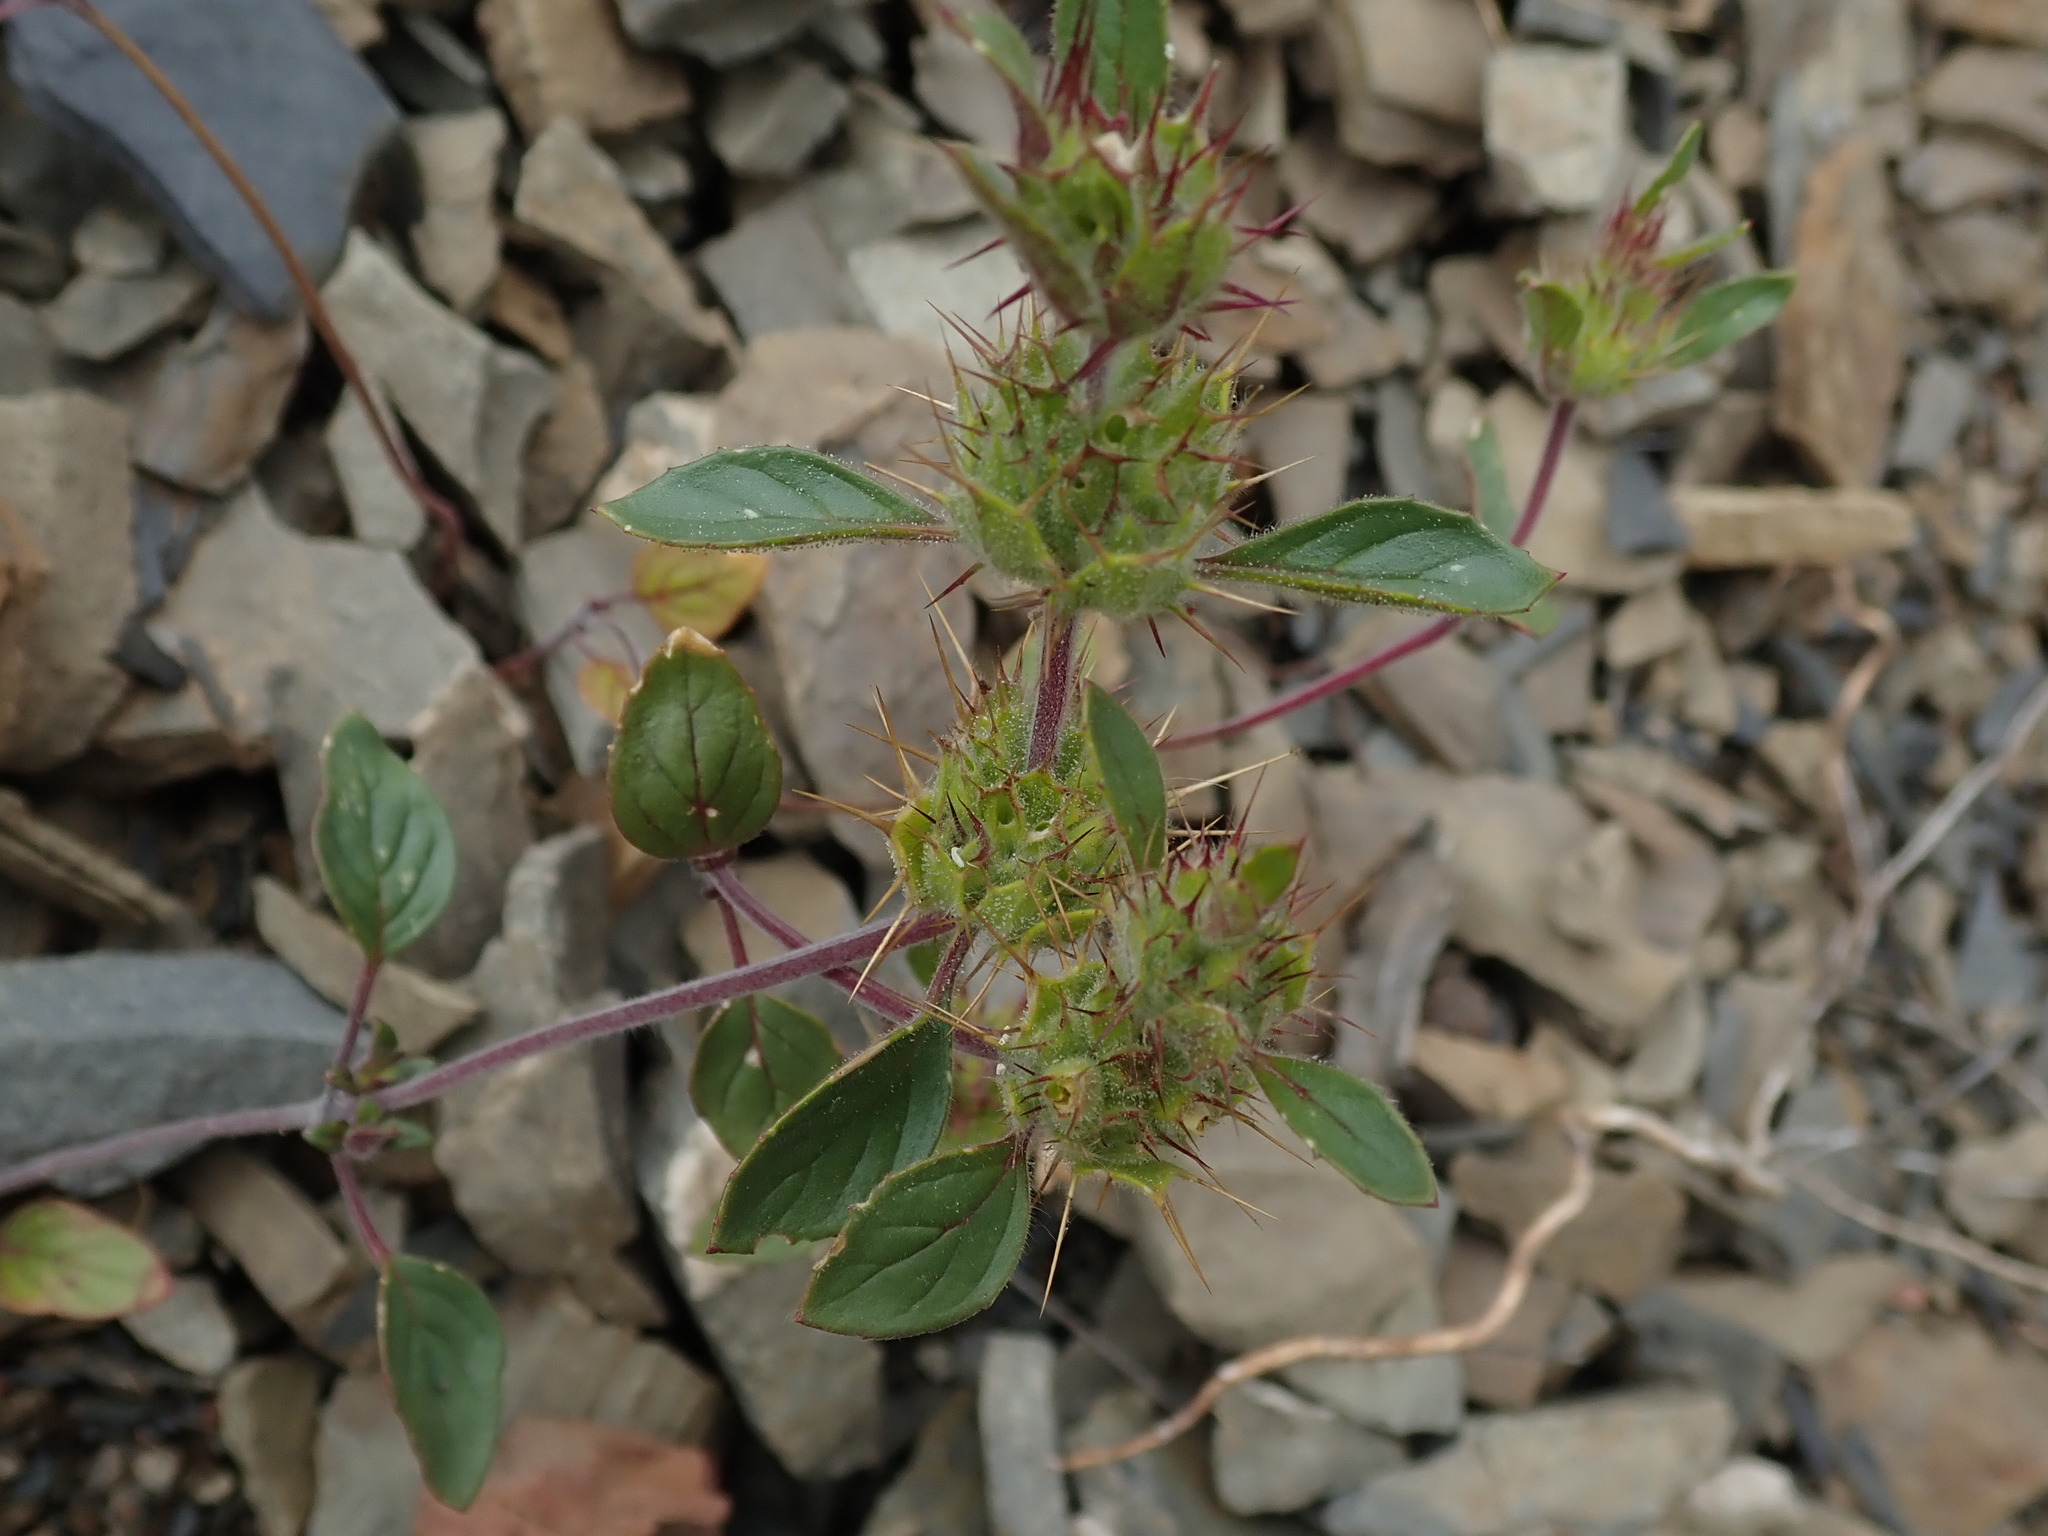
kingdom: Plantae
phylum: Tracheophyta
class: Magnoliopsida
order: Lamiales
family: Lamiaceae
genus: Acanthomintha
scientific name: Acanthomintha lanceolata
